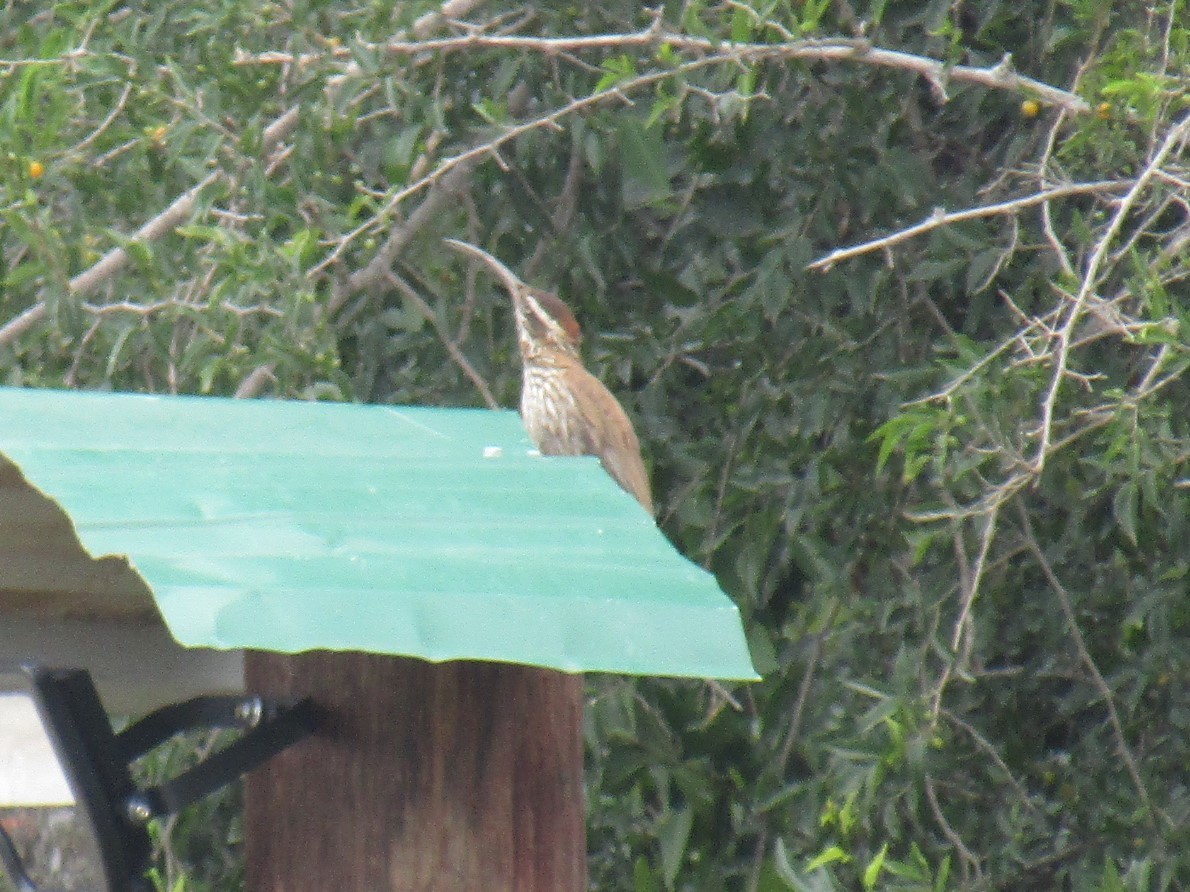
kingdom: Animalia
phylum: Chordata
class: Aves
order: Passeriformes
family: Furnariidae
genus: Drymornis
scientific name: Drymornis bridgesii
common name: Scimitar-billed woodcreeper
